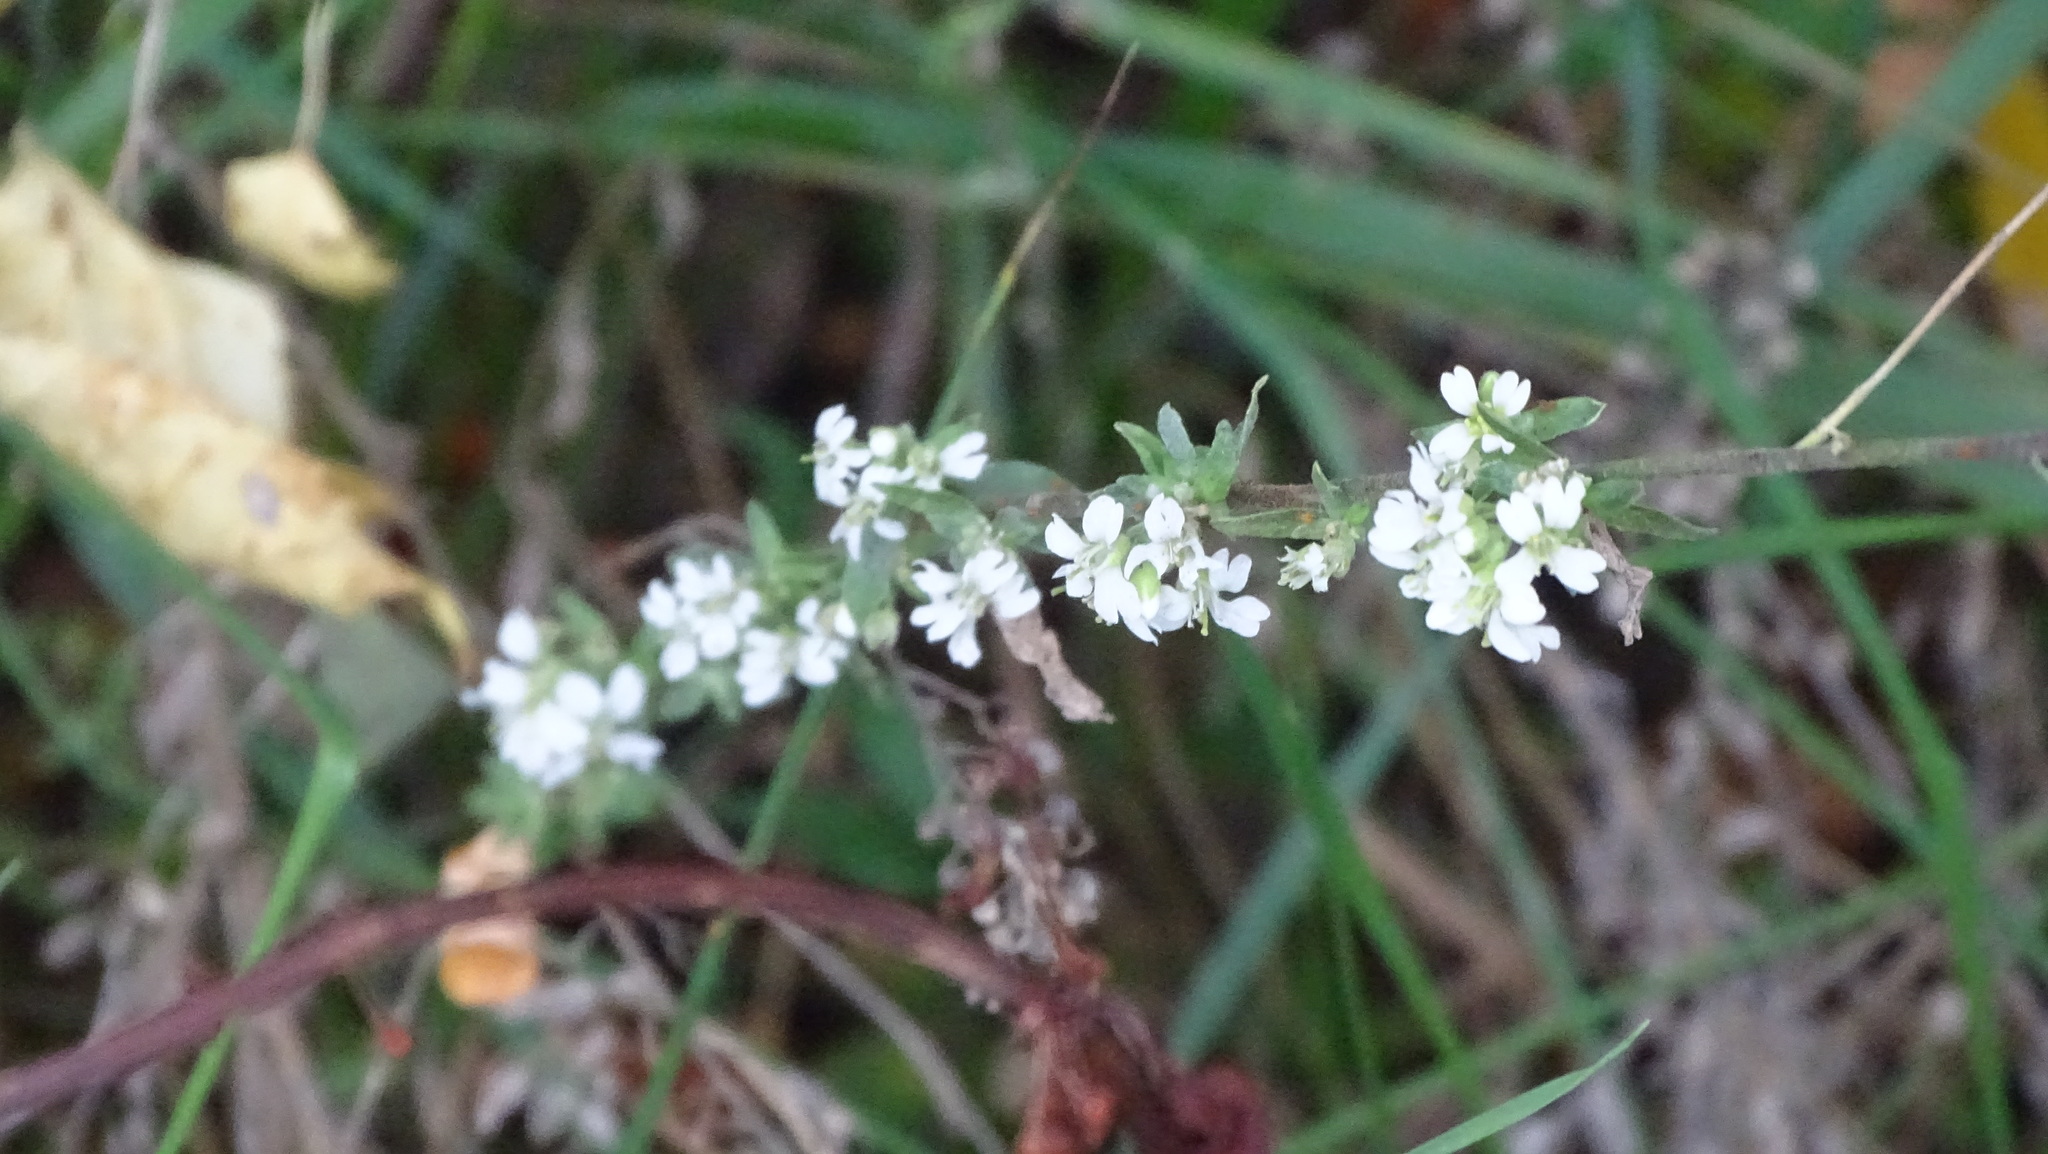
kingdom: Plantae
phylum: Tracheophyta
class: Magnoliopsida
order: Brassicales
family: Brassicaceae
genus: Berteroa
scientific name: Berteroa incana
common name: Hoary alison
